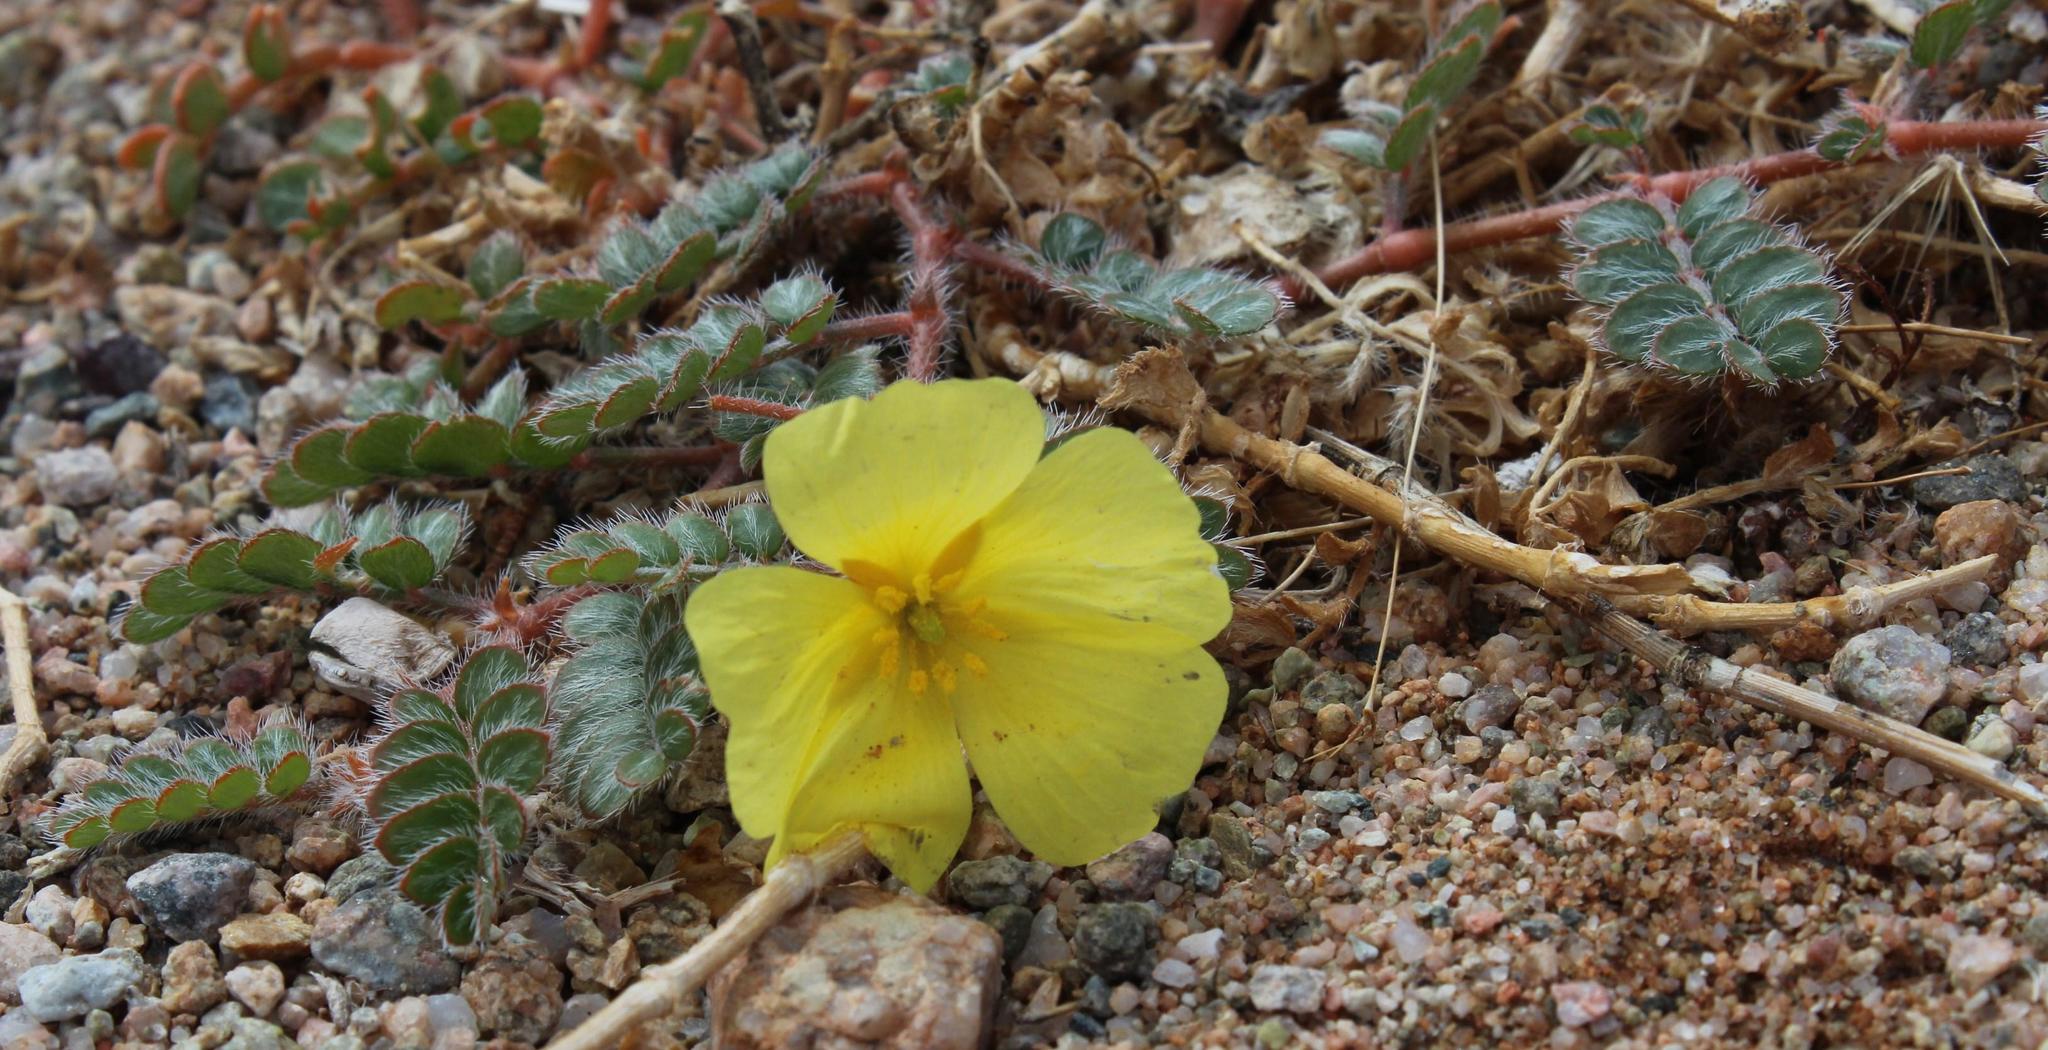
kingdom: Plantae
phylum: Tracheophyta
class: Magnoliopsida
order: Zygophyllales
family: Zygophyllaceae
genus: Tribulus
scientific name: Tribulus cristatus
